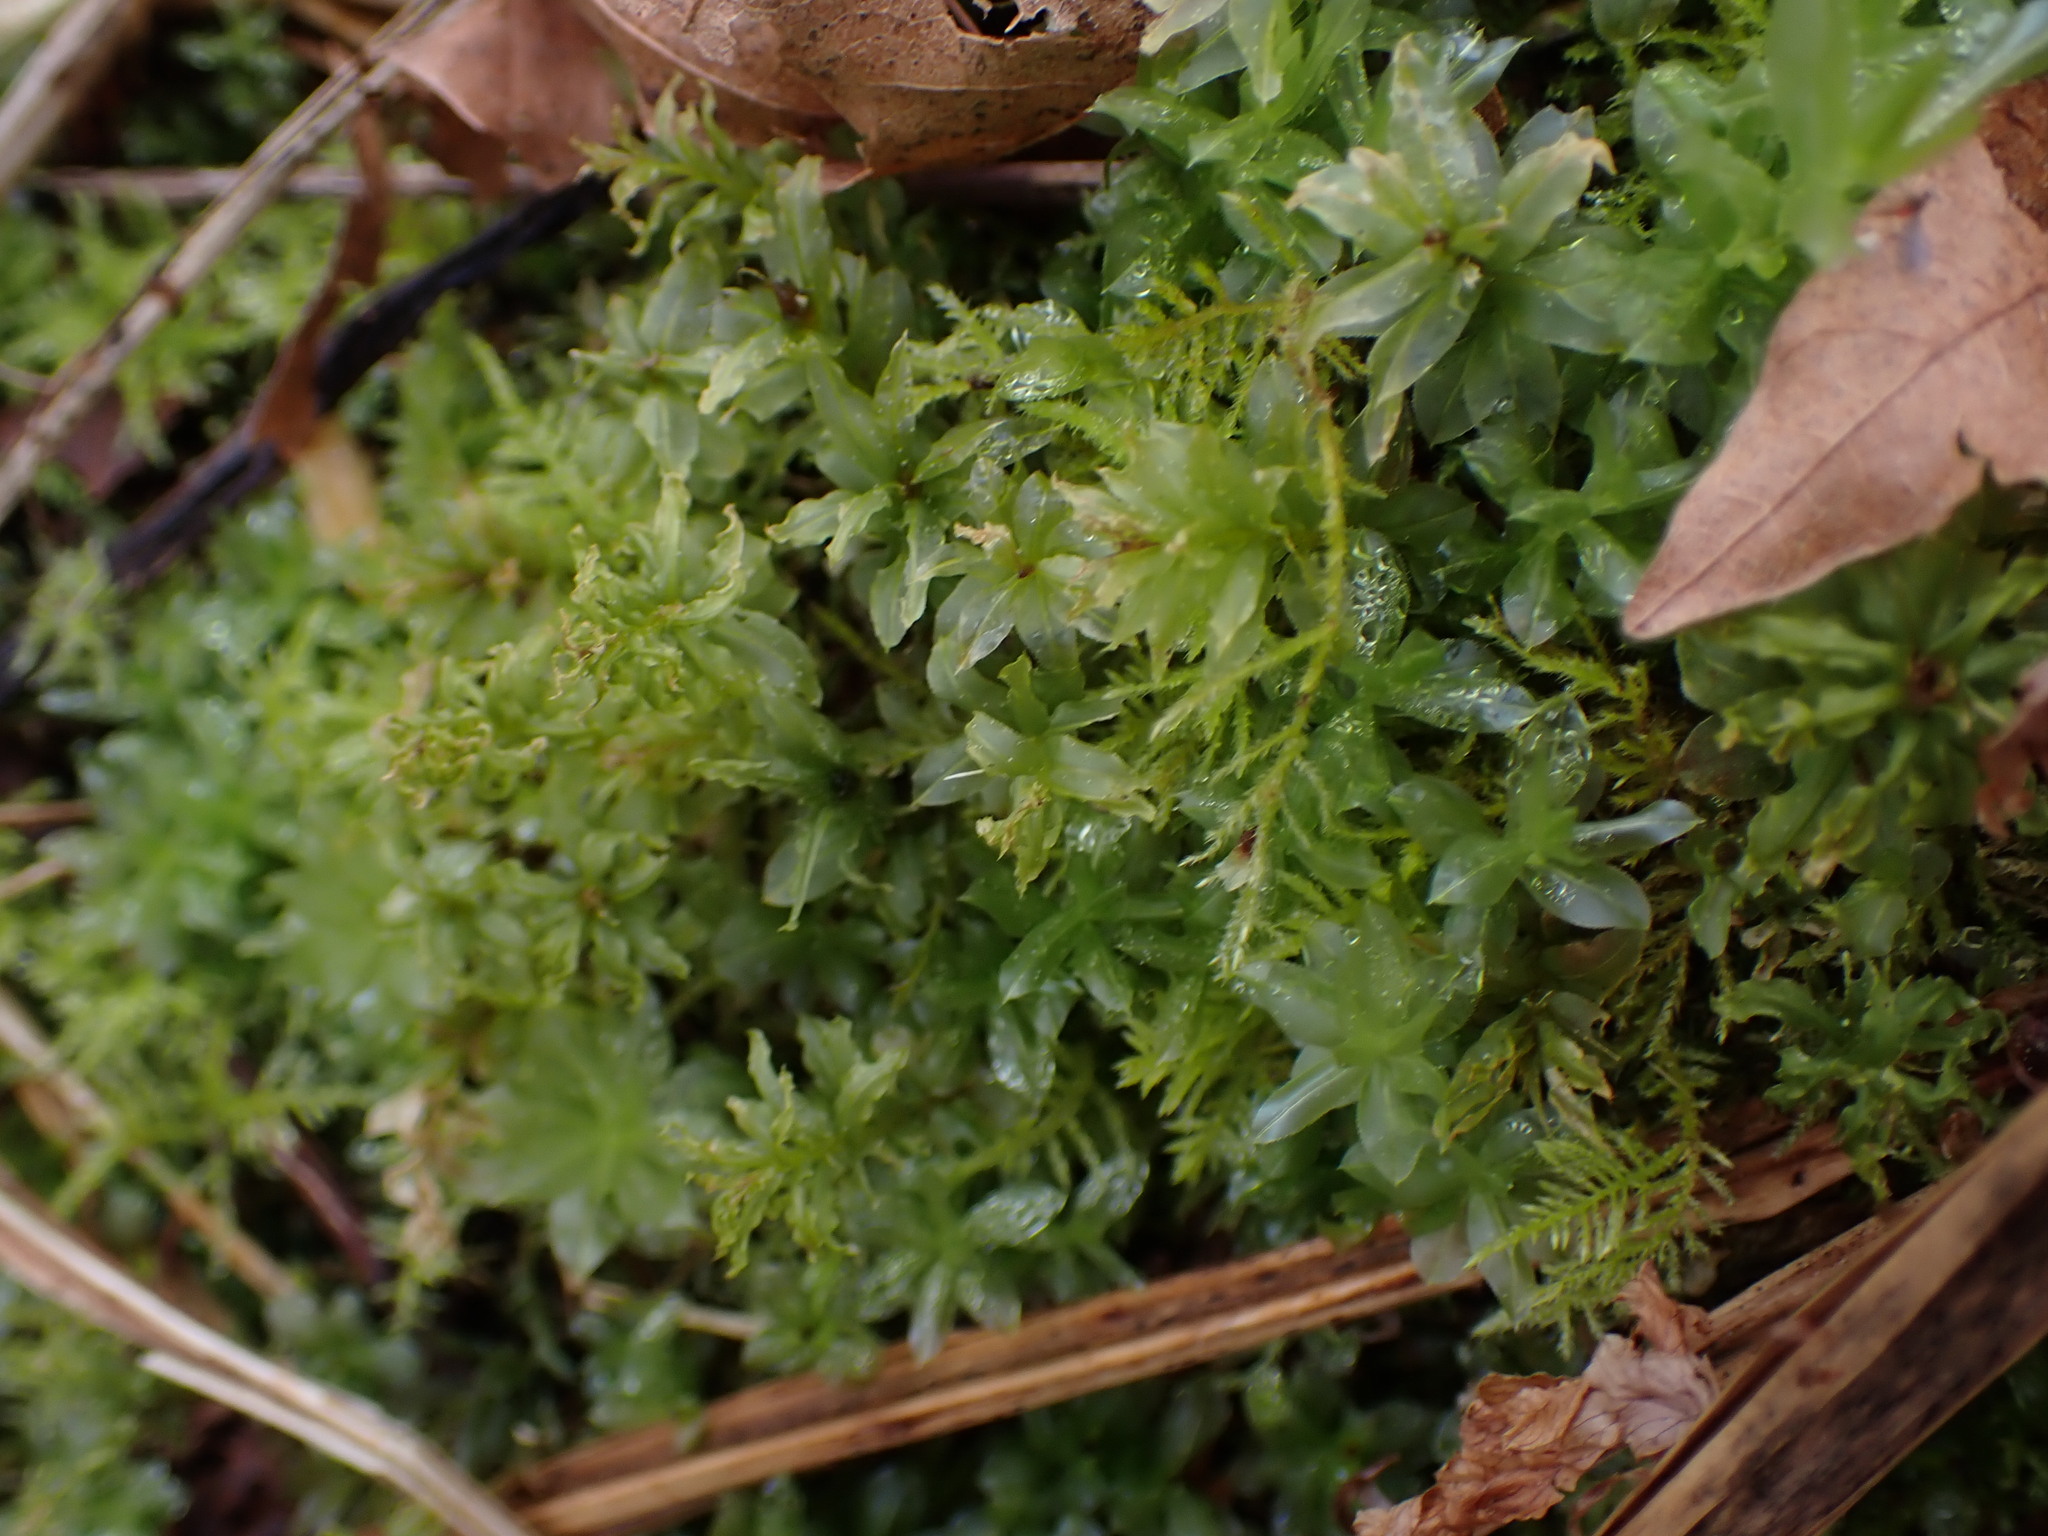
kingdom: Plantae
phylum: Bryophyta
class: Bryopsida
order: Bryales
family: Mniaceae
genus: Plagiomnium
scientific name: Plagiomnium insigne
